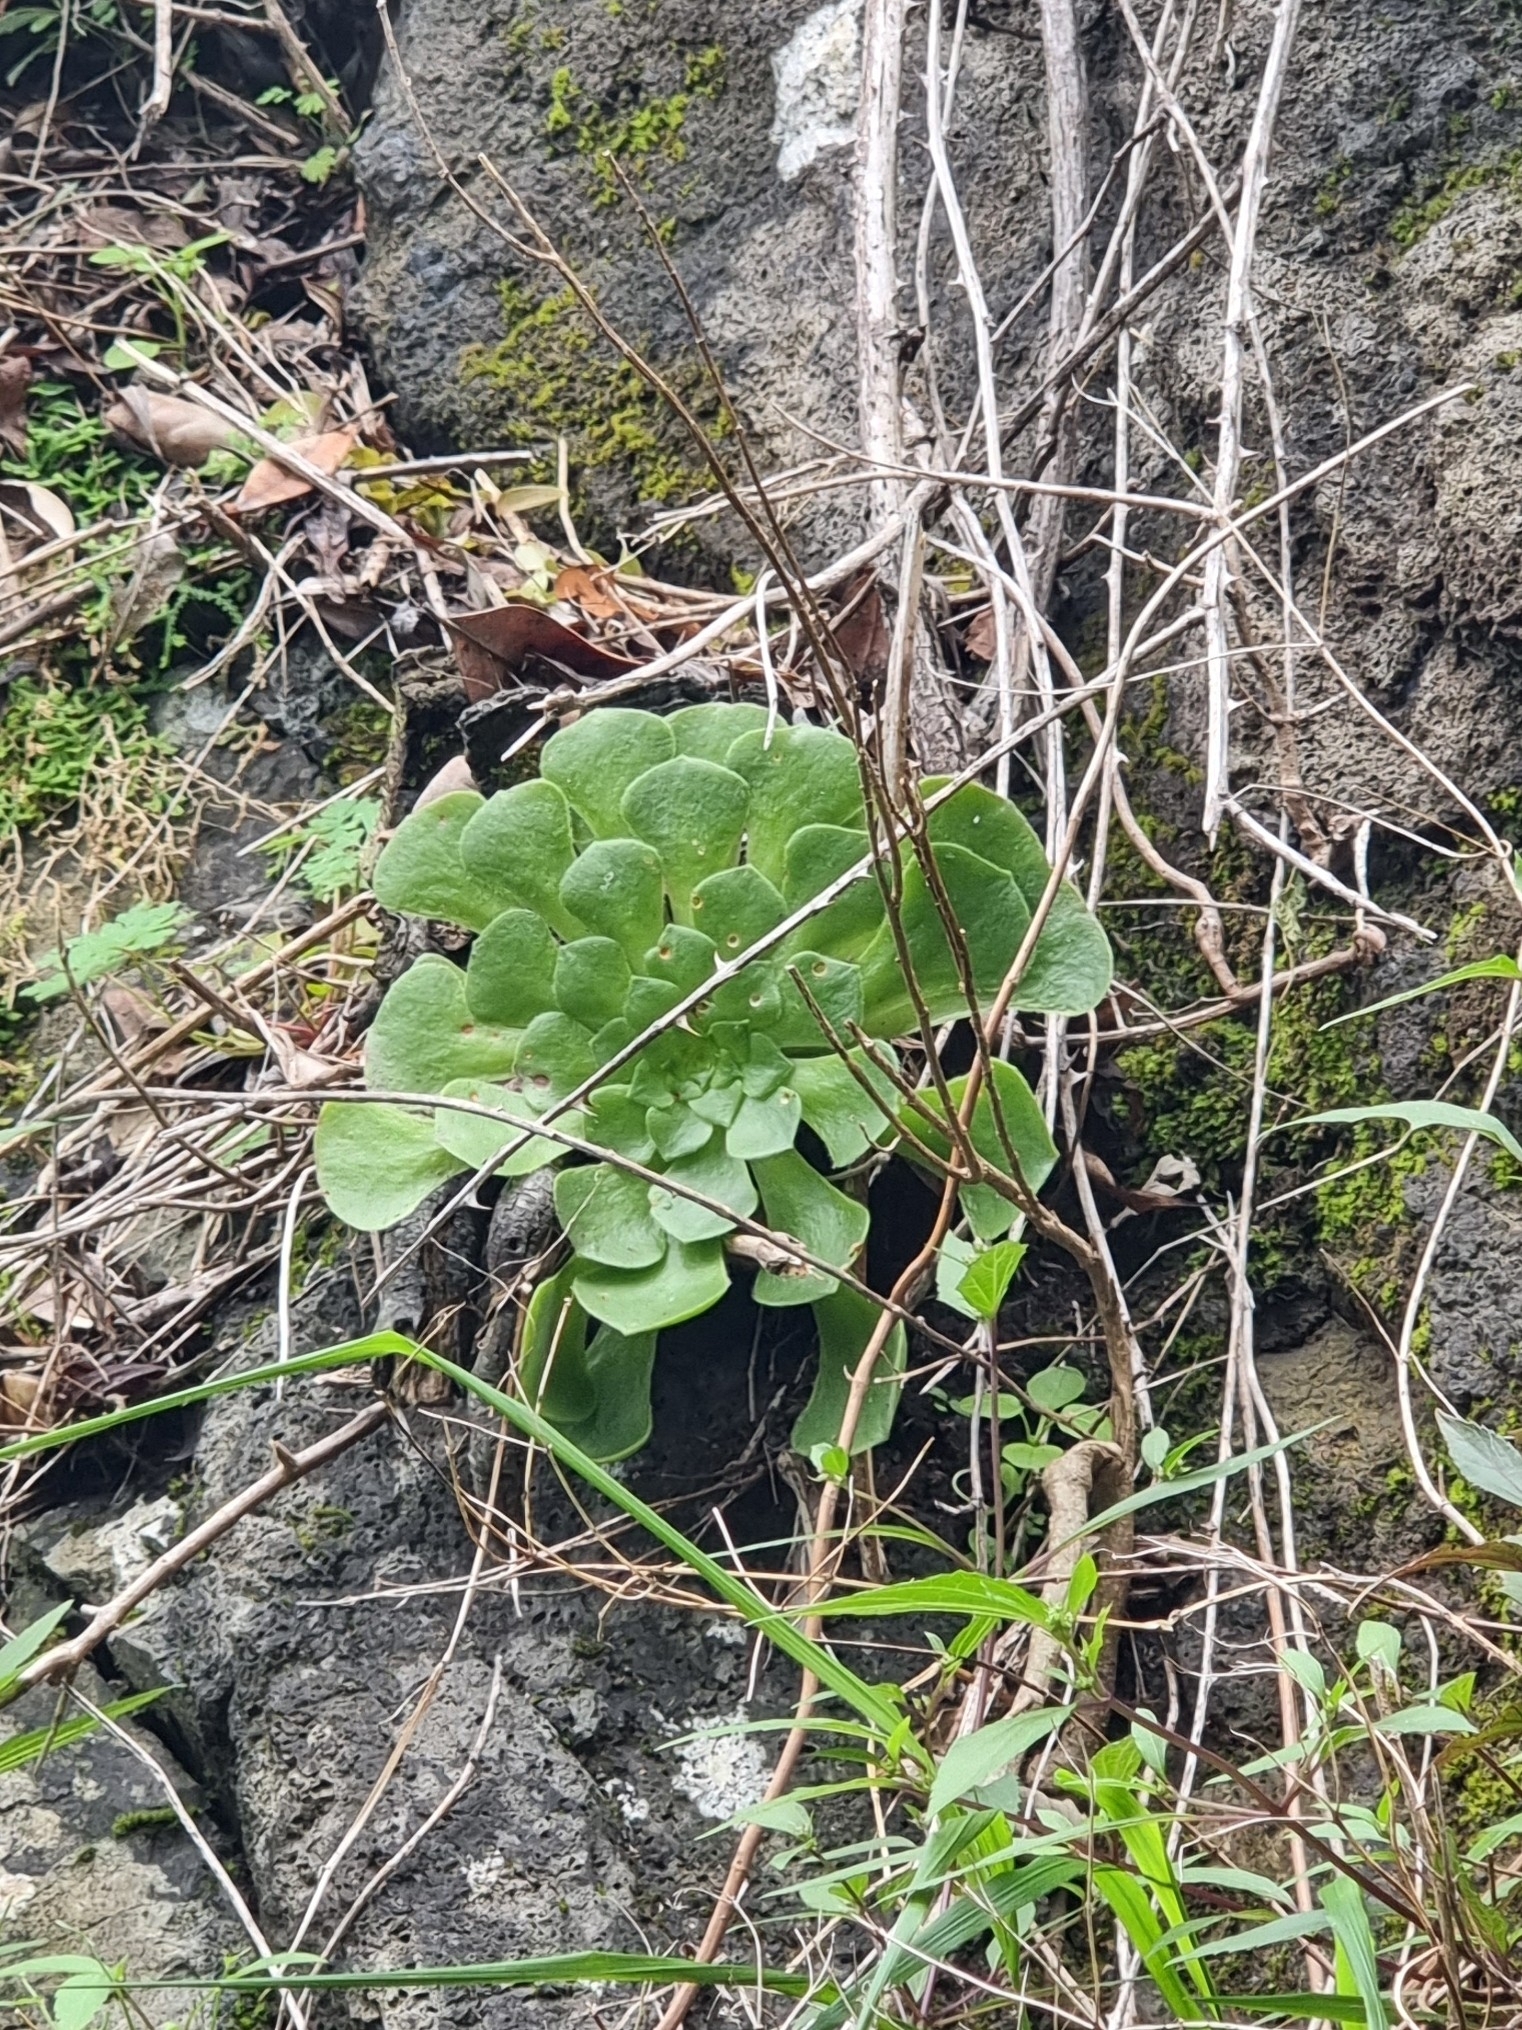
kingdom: Plantae
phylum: Tracheophyta
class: Magnoliopsida
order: Saxifragales
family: Crassulaceae
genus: Aeonium
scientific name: Aeonium glandulosum
